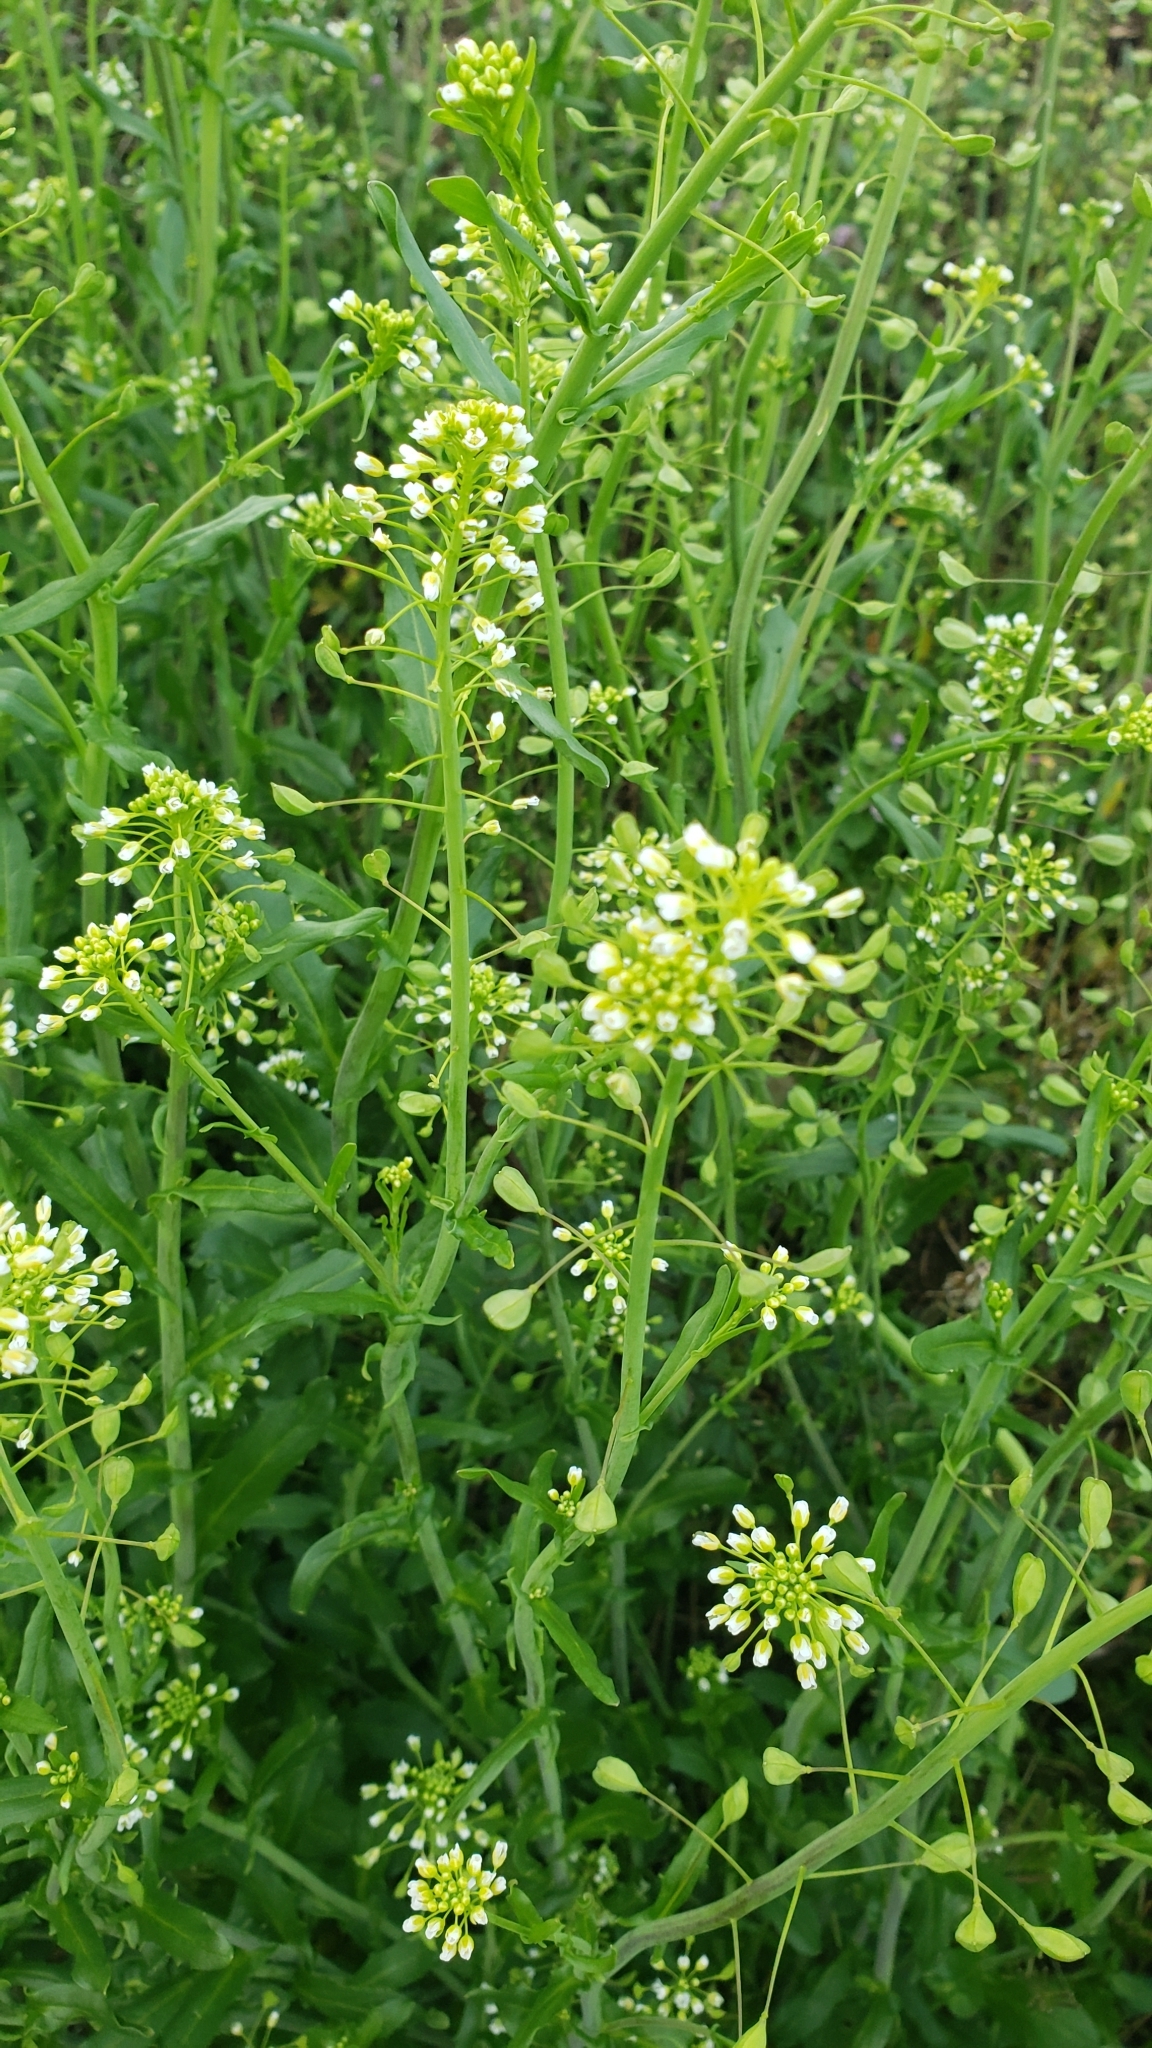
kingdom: Plantae
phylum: Tracheophyta
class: Magnoliopsida
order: Brassicales
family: Brassicaceae
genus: Mummenhoffia
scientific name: Mummenhoffia alliacea
